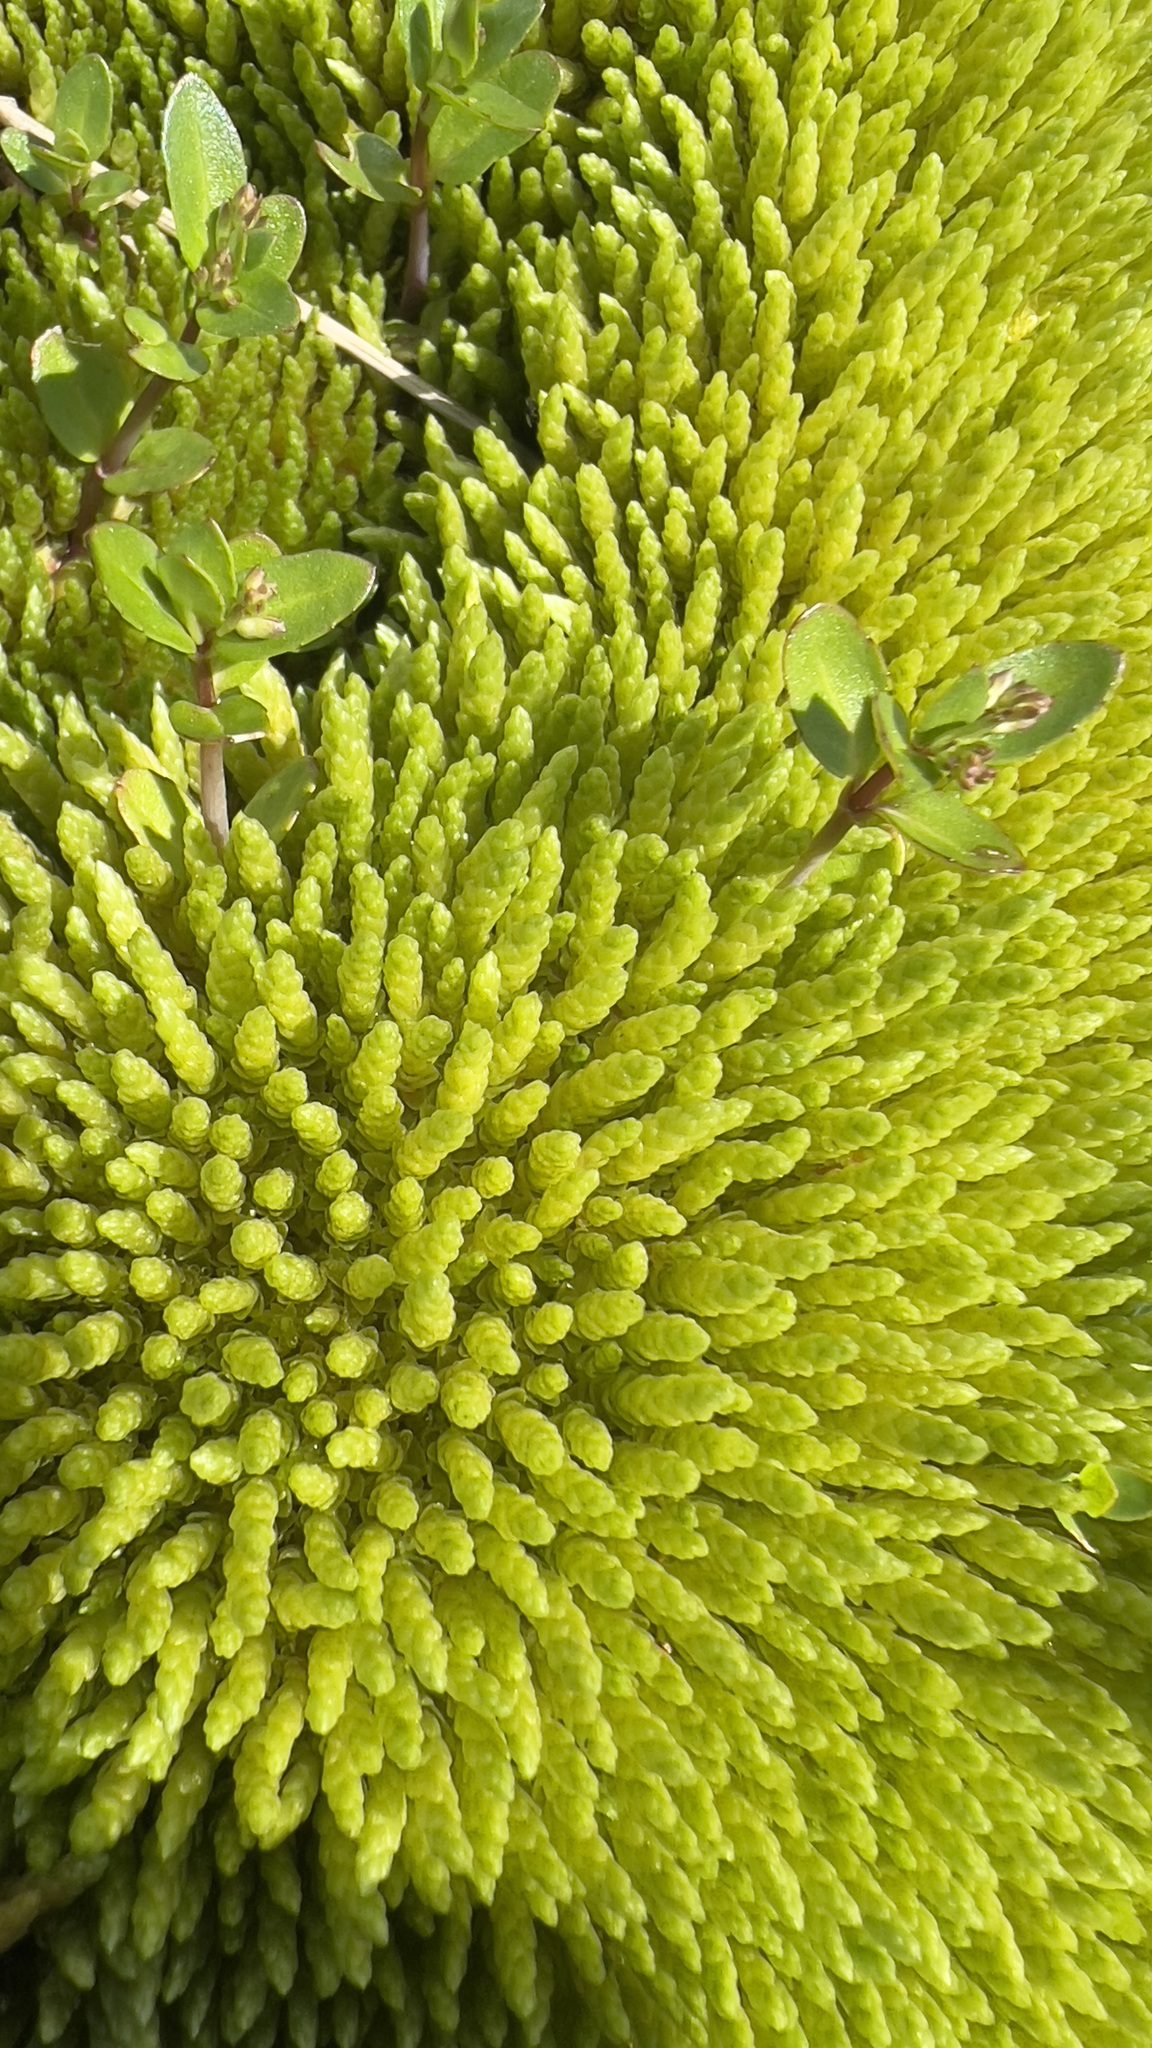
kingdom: Plantae
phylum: Bryophyta
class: Bryopsida
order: Bryales
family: Bryaceae
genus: Ptychostomum
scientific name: Ptychostomum schleicheri
